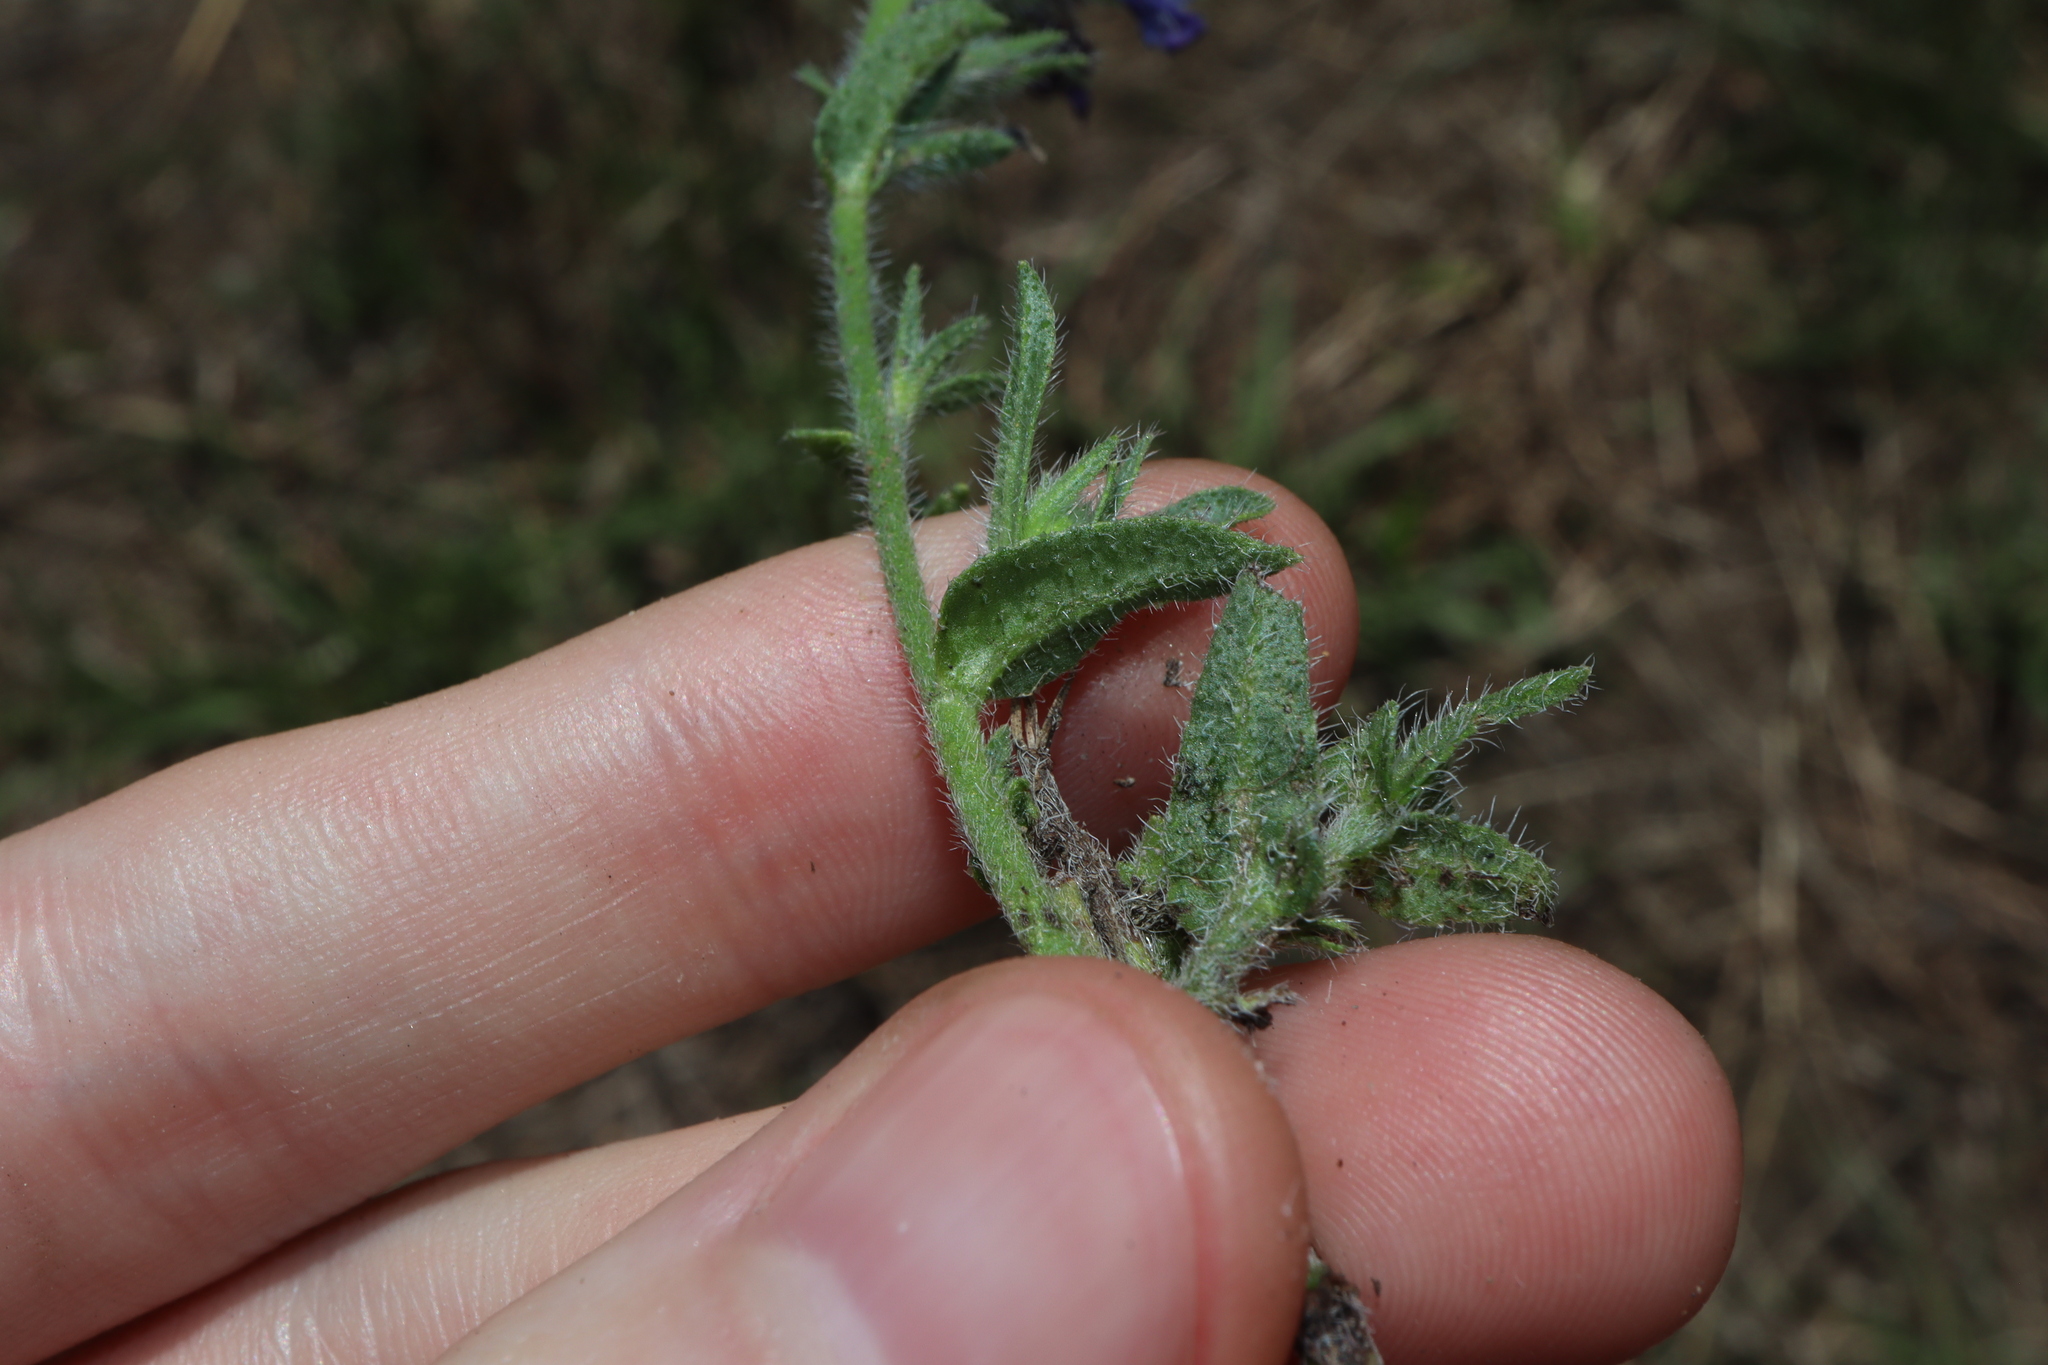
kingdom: Plantae
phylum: Tracheophyta
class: Magnoliopsida
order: Boraginales
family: Boraginaceae
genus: Echium
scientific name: Echium plantagineum
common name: Purple viper's-bugloss
